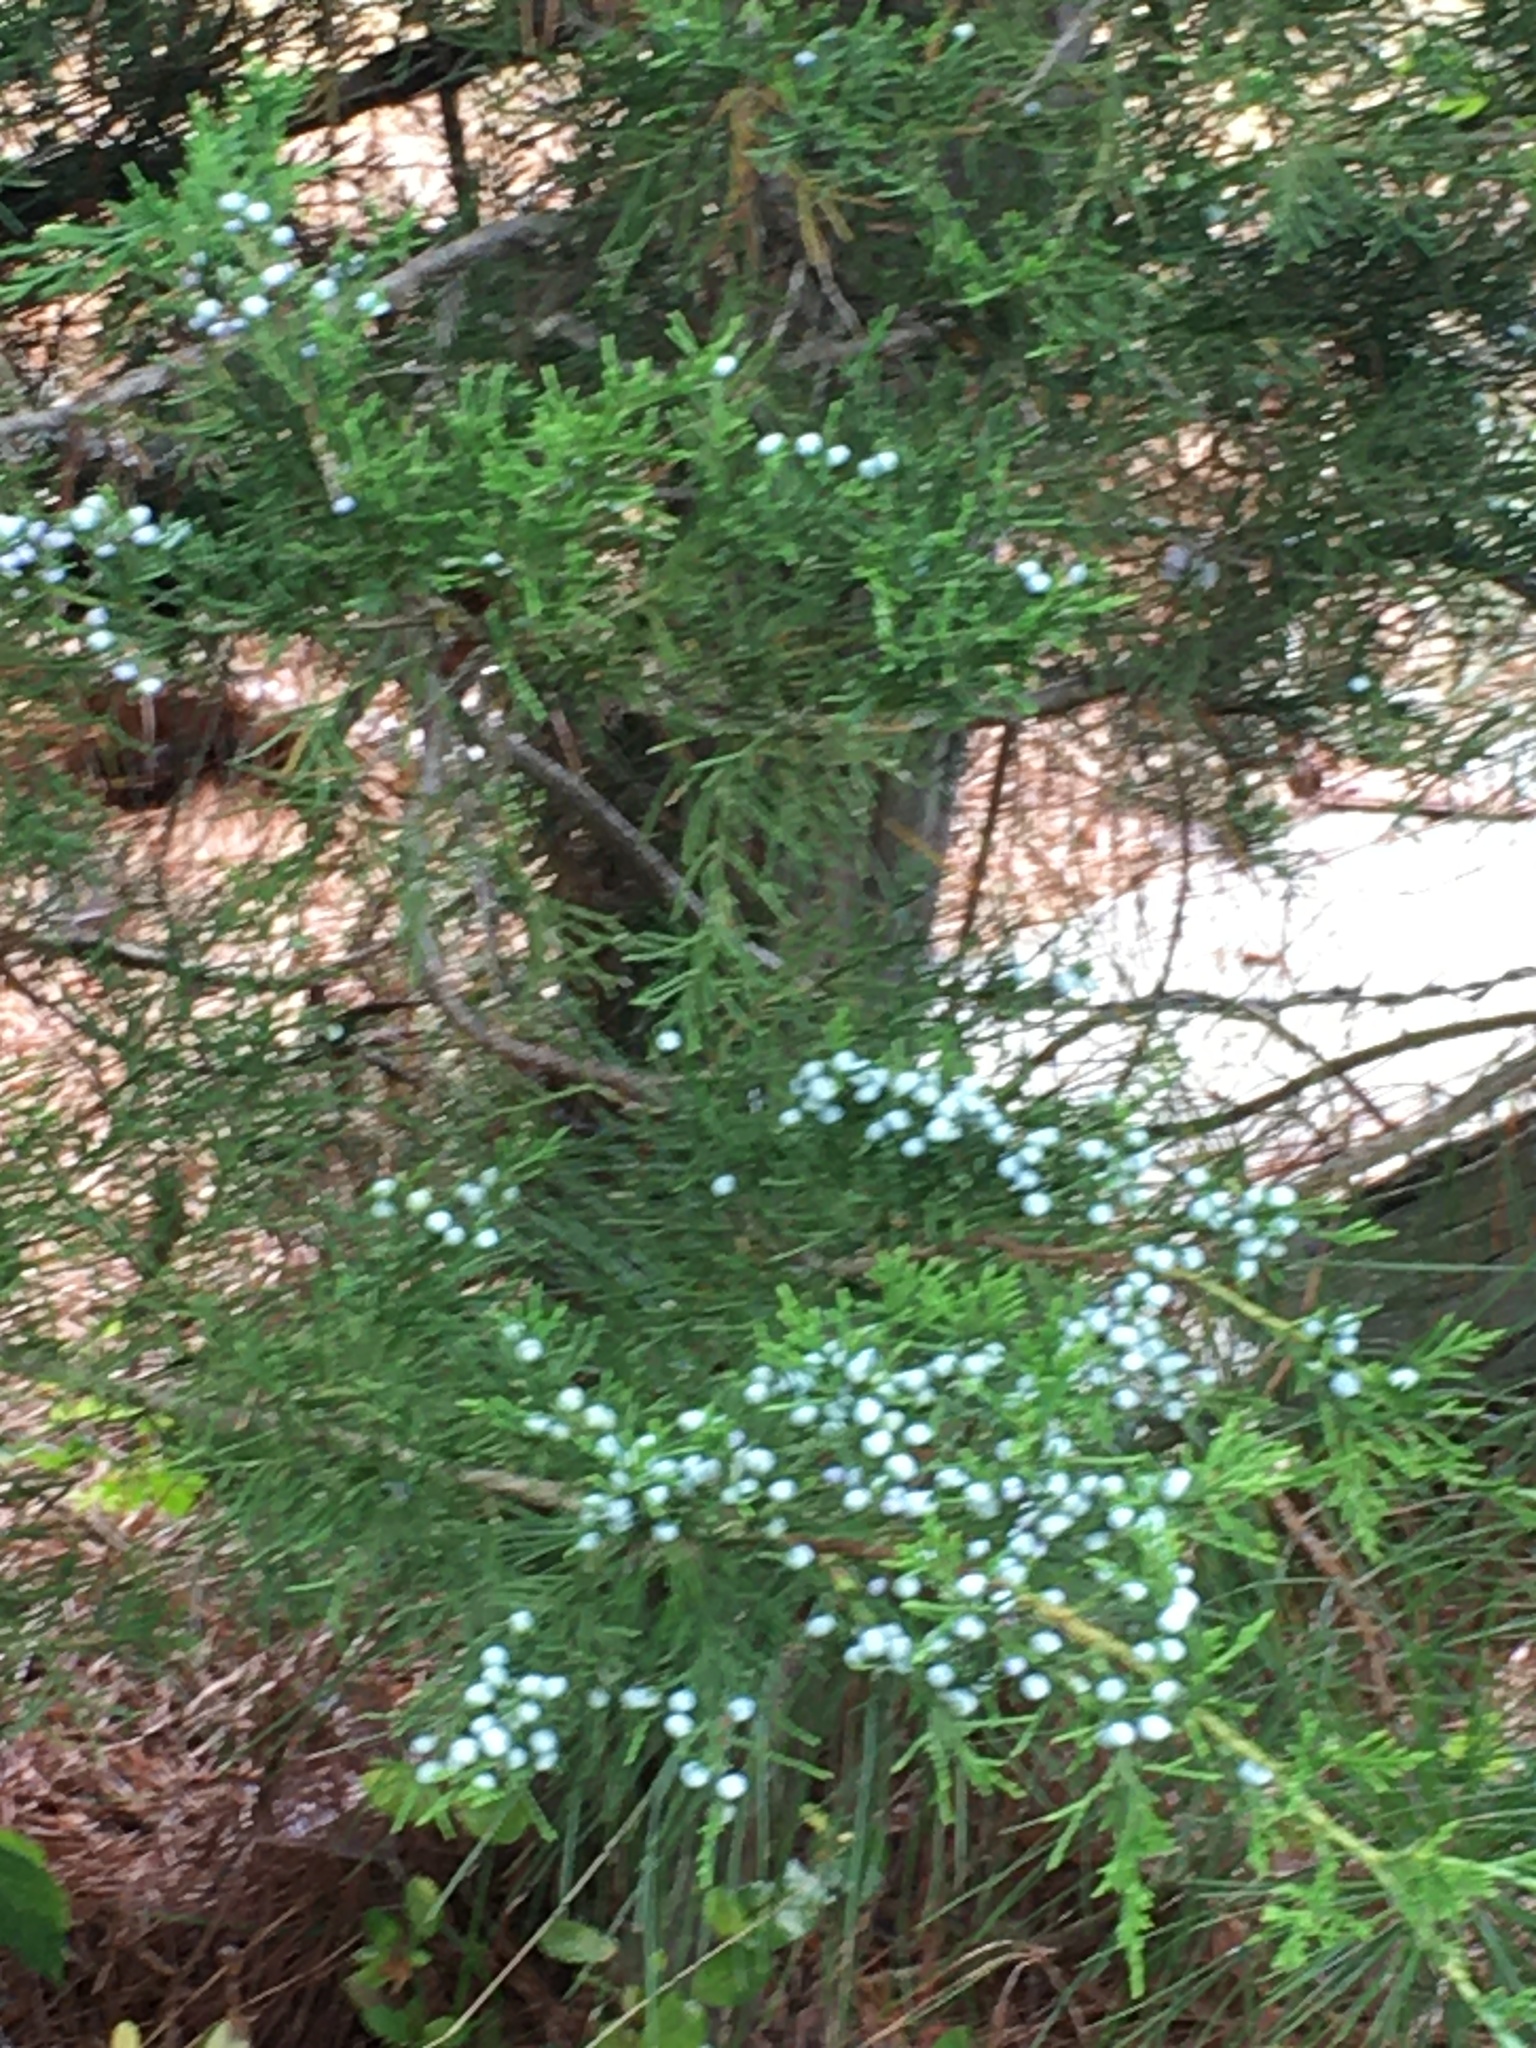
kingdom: Plantae
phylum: Tracheophyta
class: Pinopsida
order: Pinales
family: Cupressaceae
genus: Juniperus
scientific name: Juniperus virginiana
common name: Red juniper
